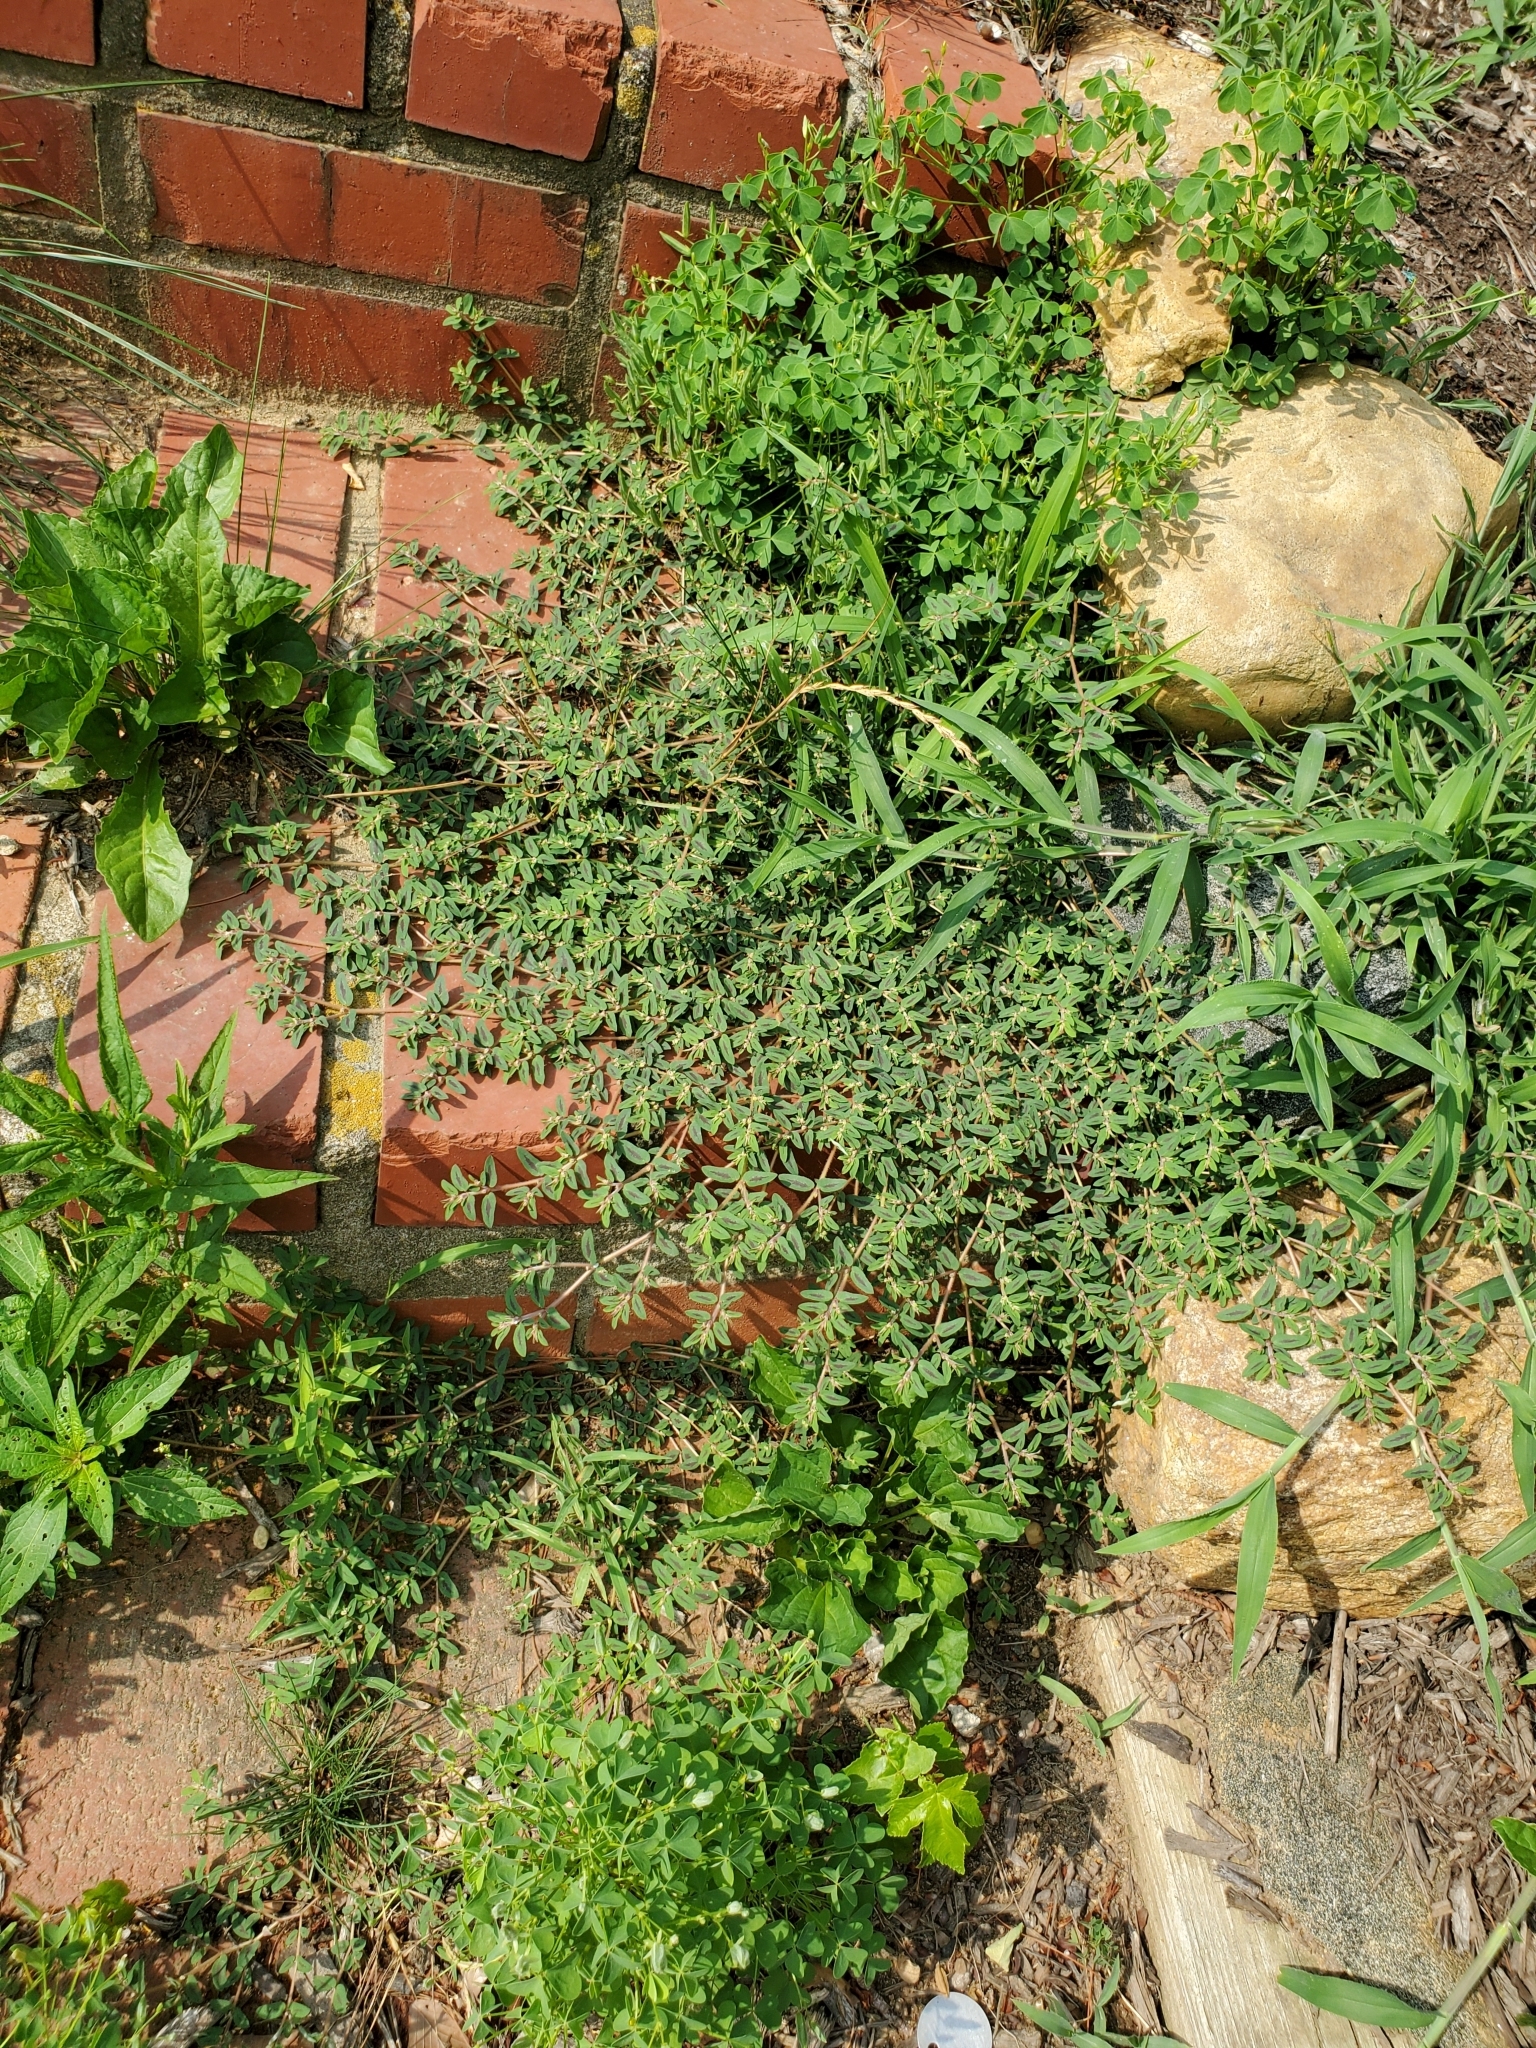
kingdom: Plantae
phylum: Tracheophyta
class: Magnoliopsida
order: Malpighiales
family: Euphorbiaceae
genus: Euphorbia
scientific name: Euphorbia maculata
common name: Spotted spurge
